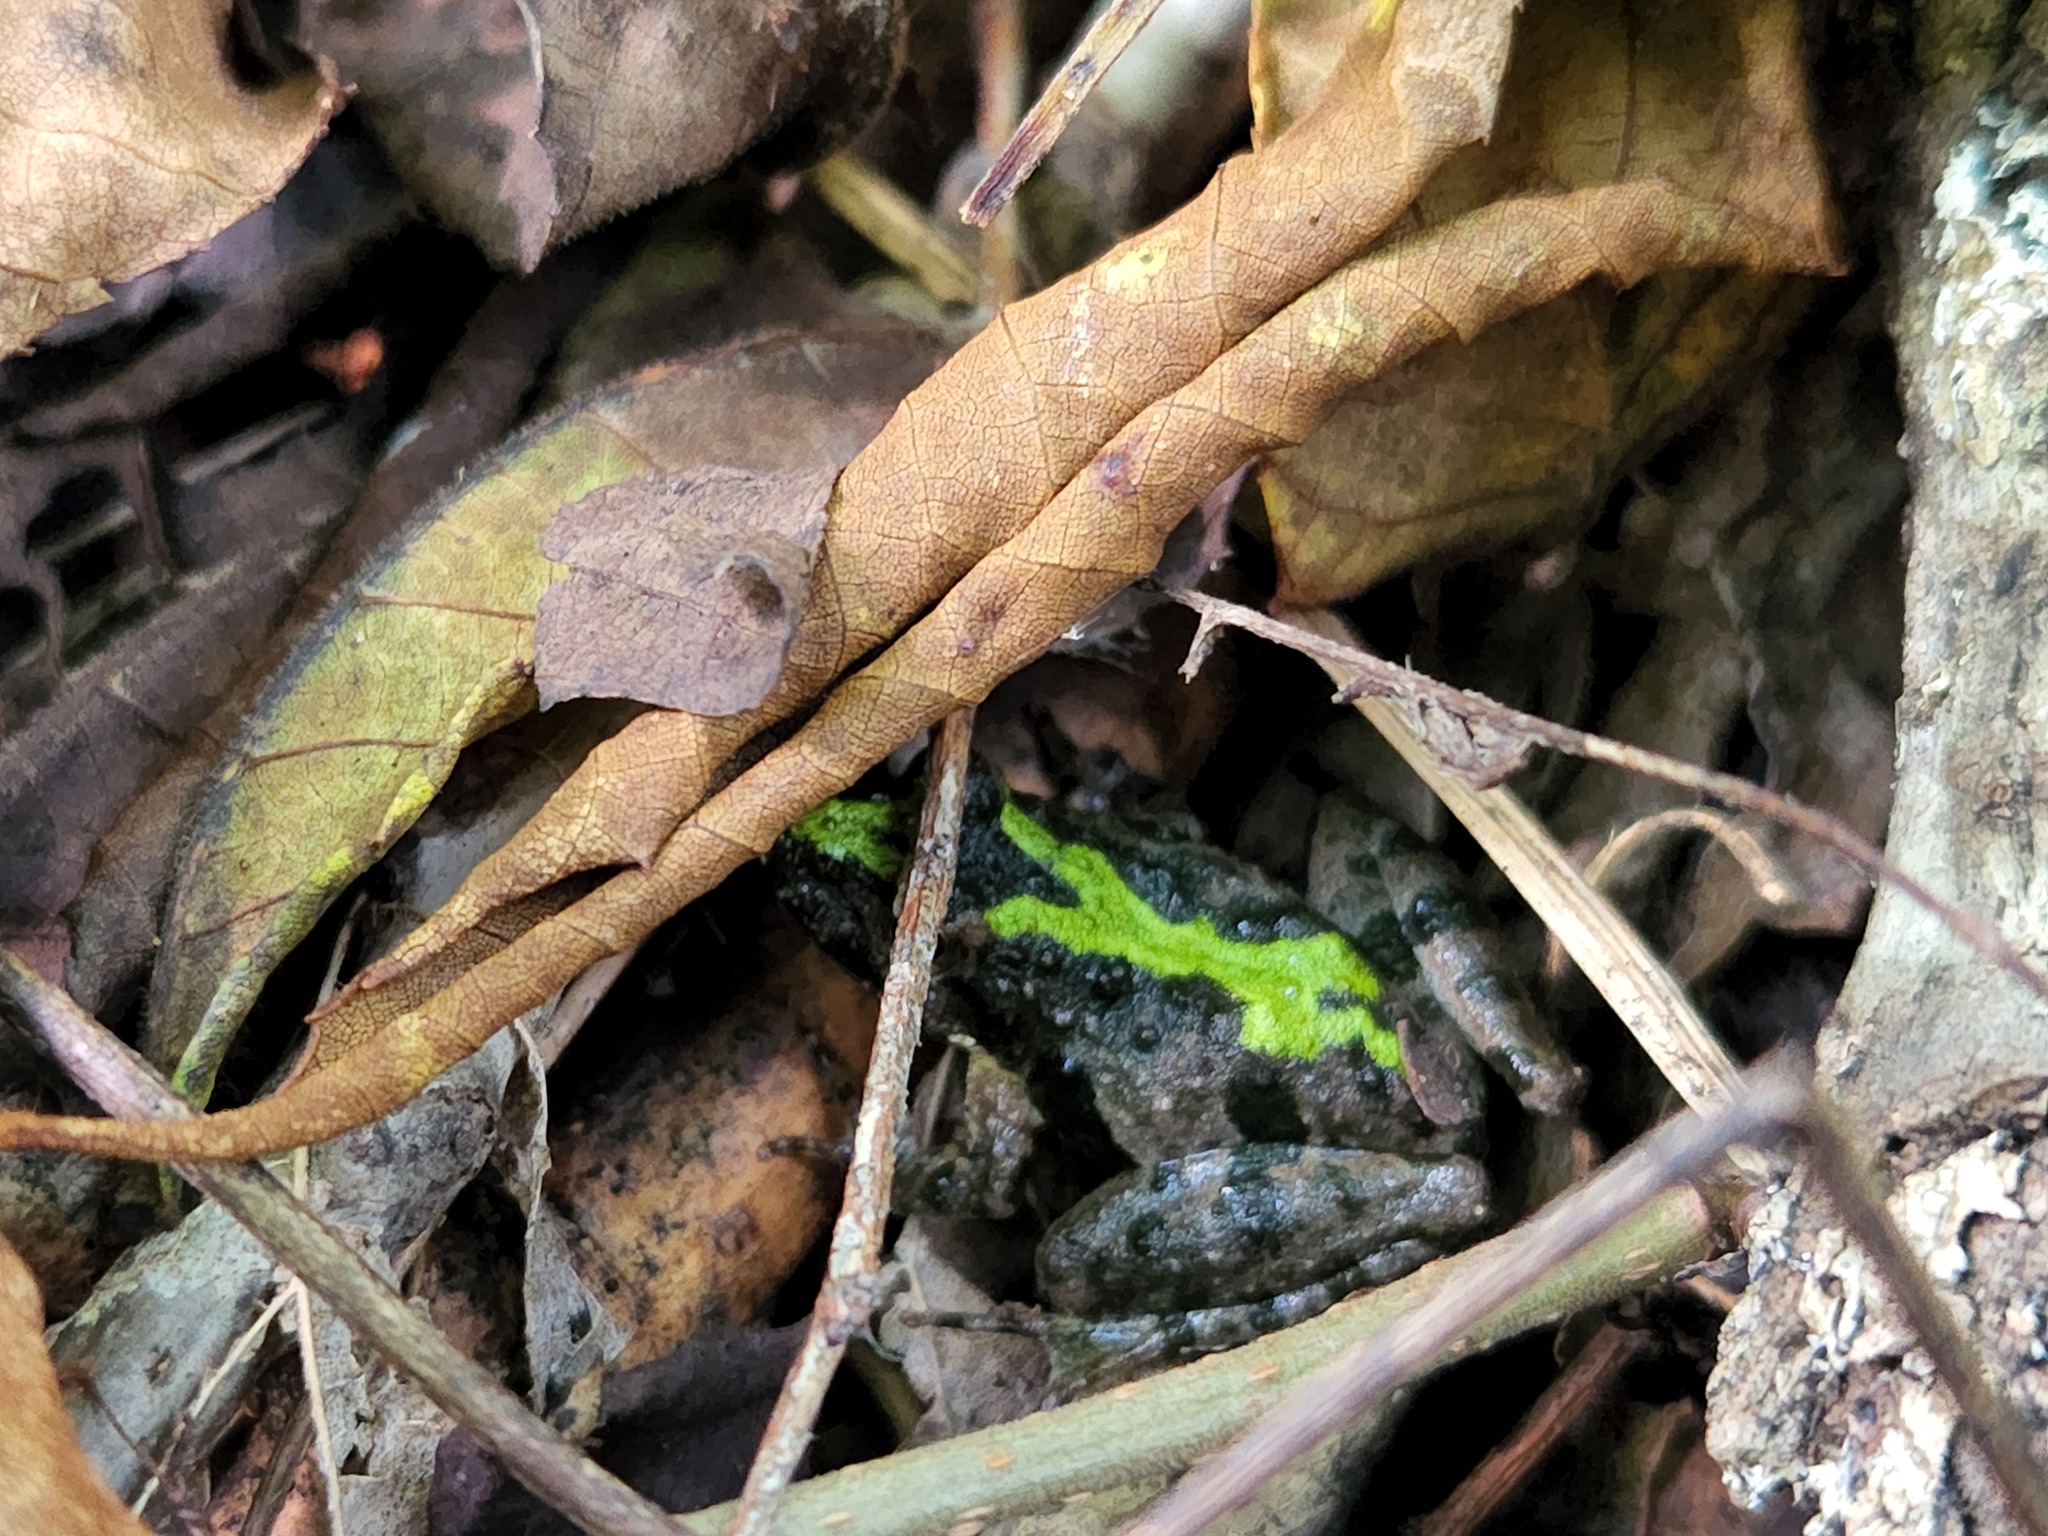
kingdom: Animalia
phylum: Chordata
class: Amphibia
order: Anura
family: Hylidae
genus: Acris
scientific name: Acris crepitans
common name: Northern cricket frog
